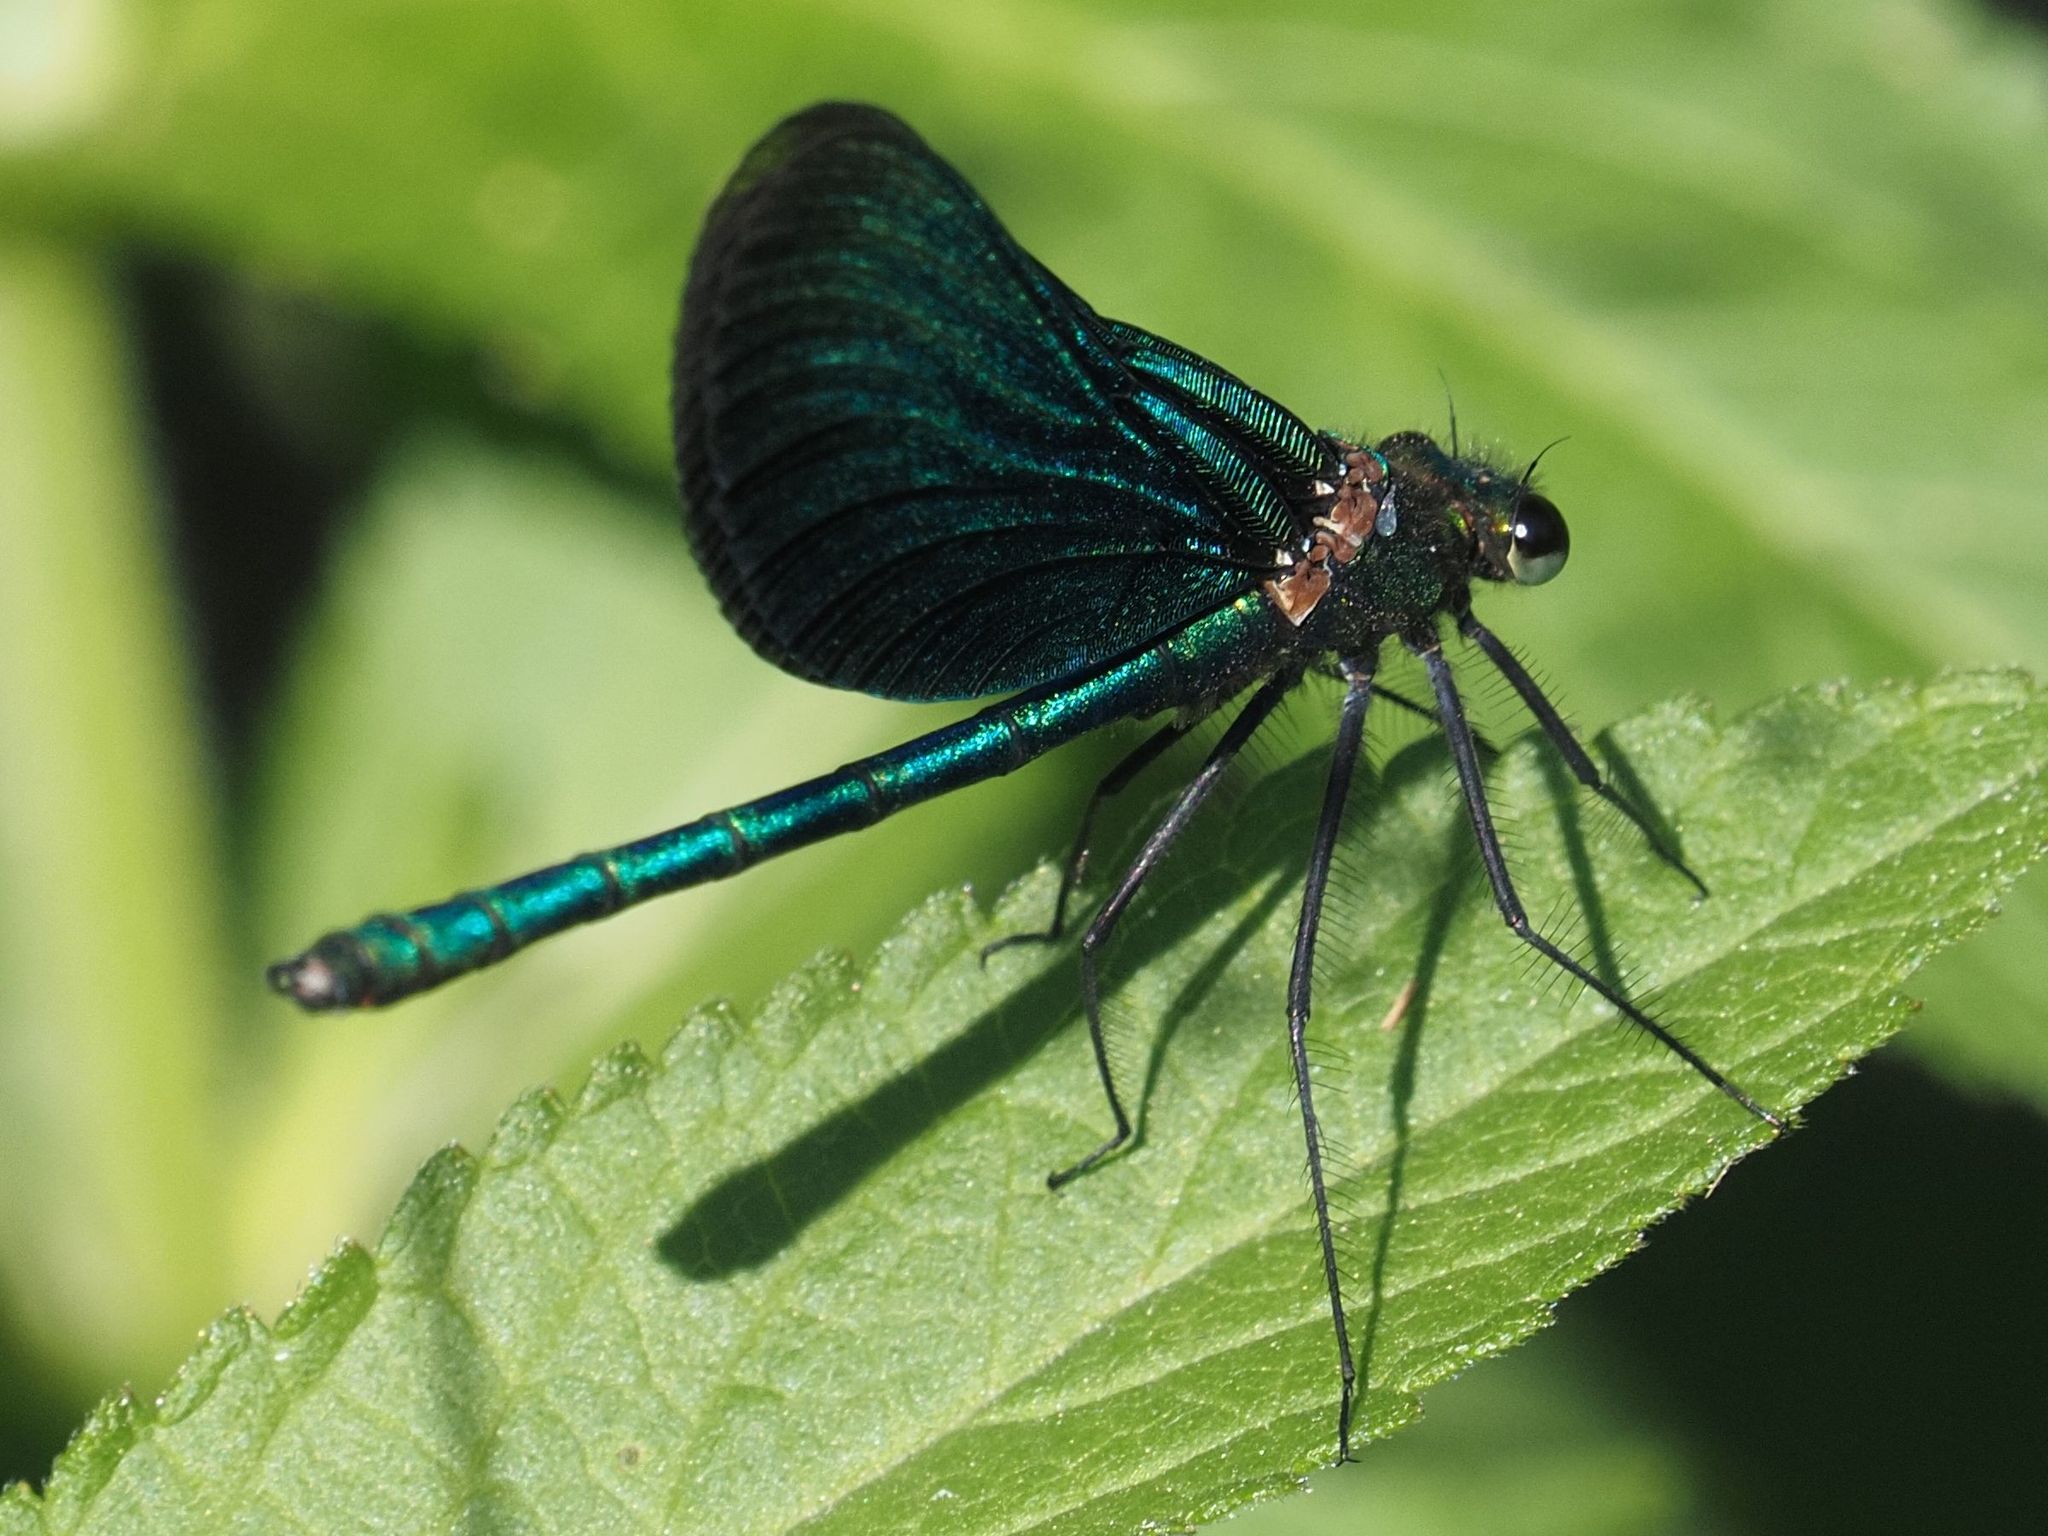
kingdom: Animalia
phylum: Arthropoda
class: Insecta
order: Odonata
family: Calopterygidae
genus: Calopteryx
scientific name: Calopteryx virgo
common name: Beautiful demoiselle
